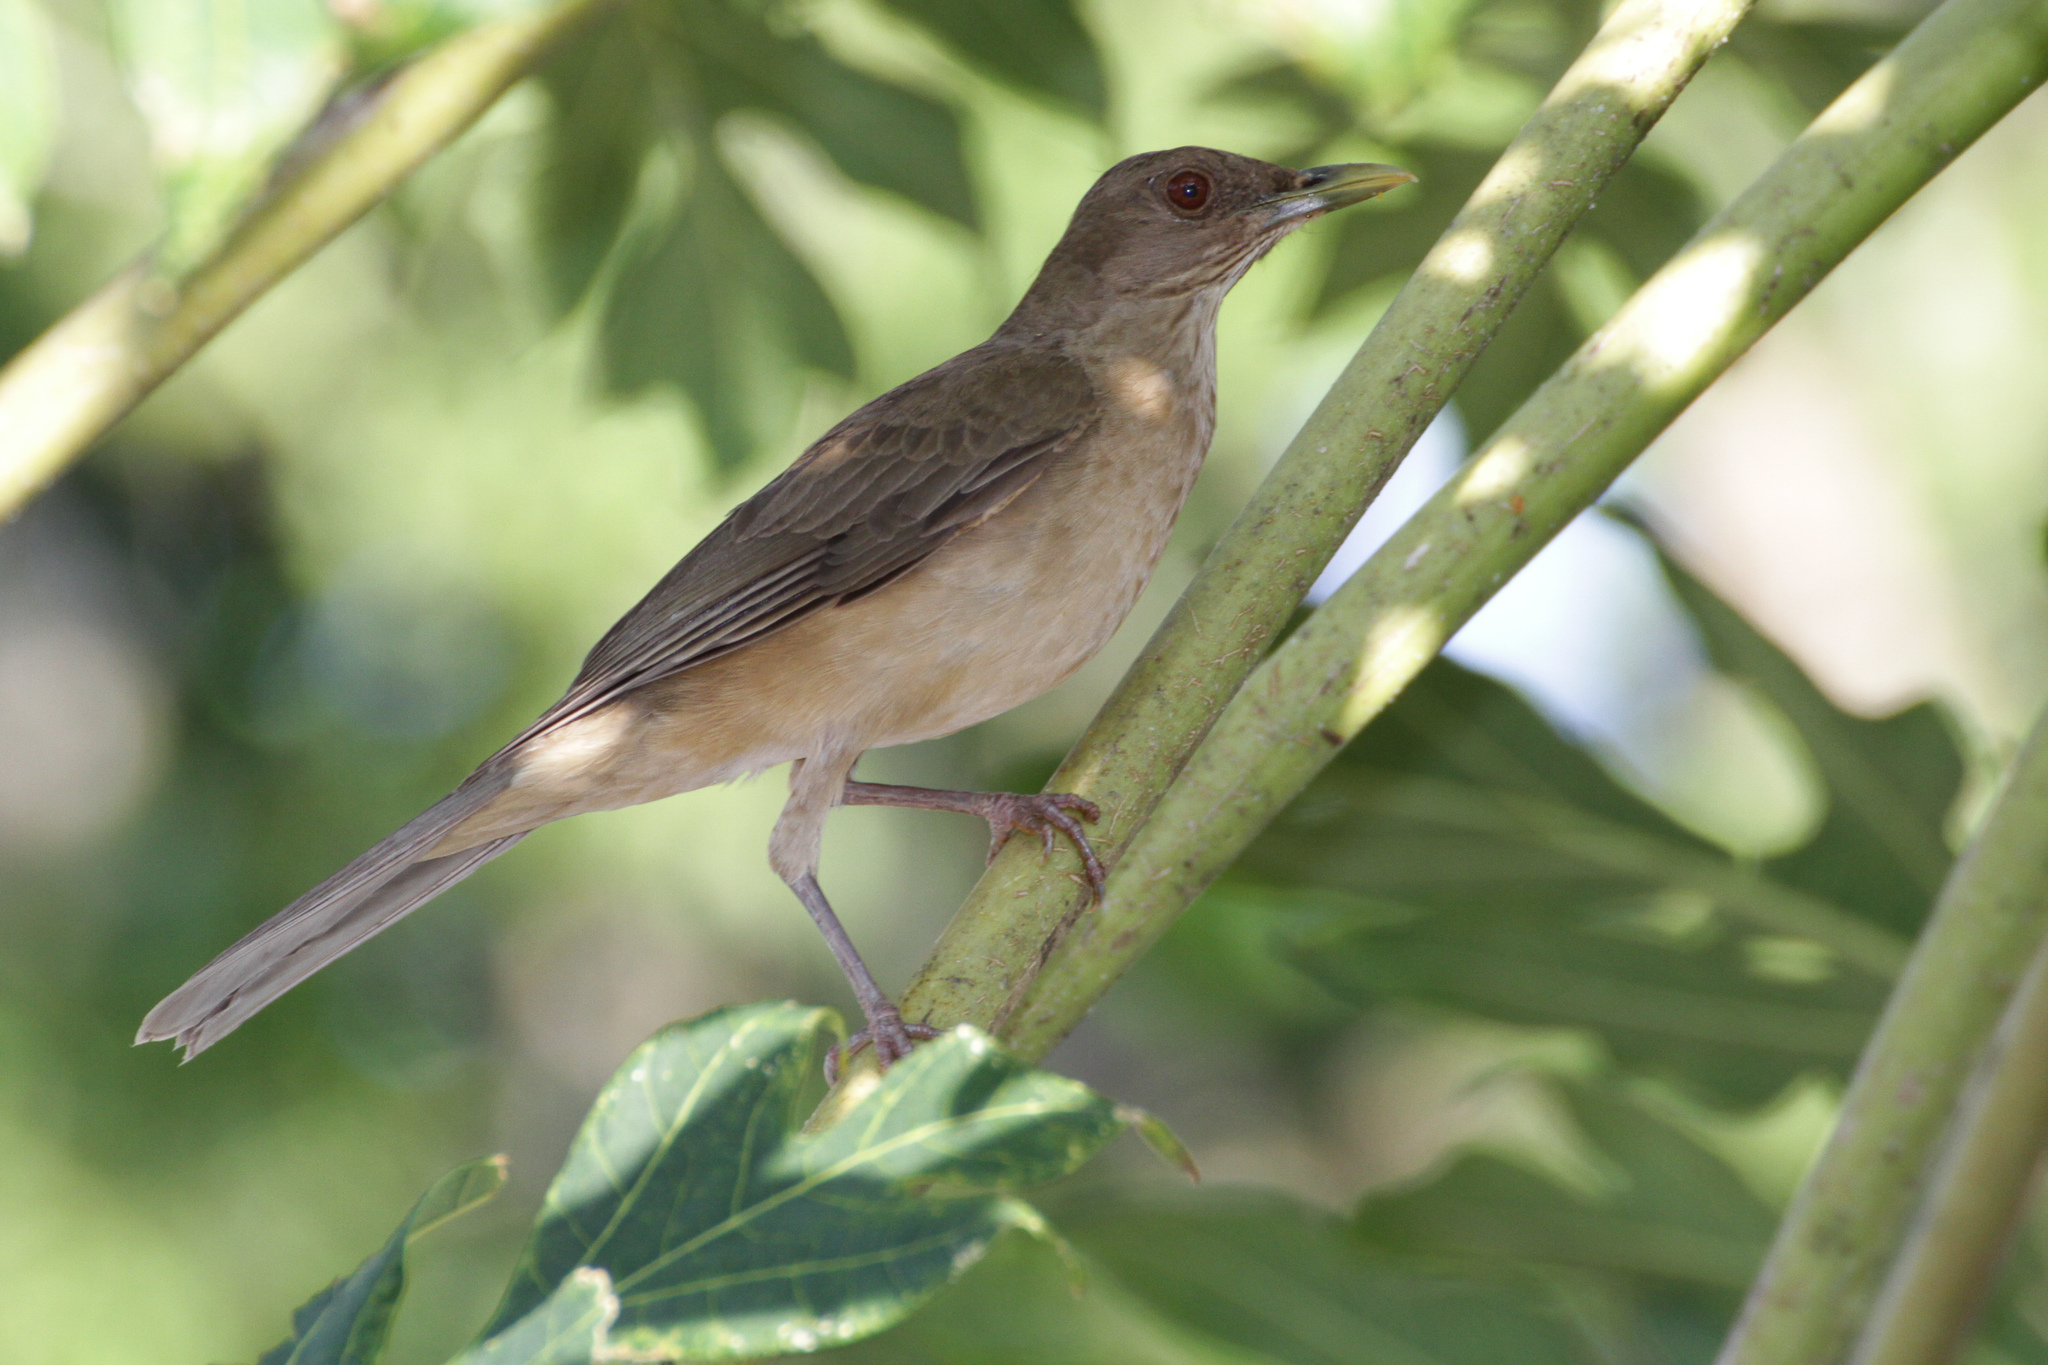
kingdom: Animalia
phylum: Chordata
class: Aves
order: Passeriformes
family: Turdidae
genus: Turdus
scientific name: Turdus grayi
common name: Clay-colored thrush
